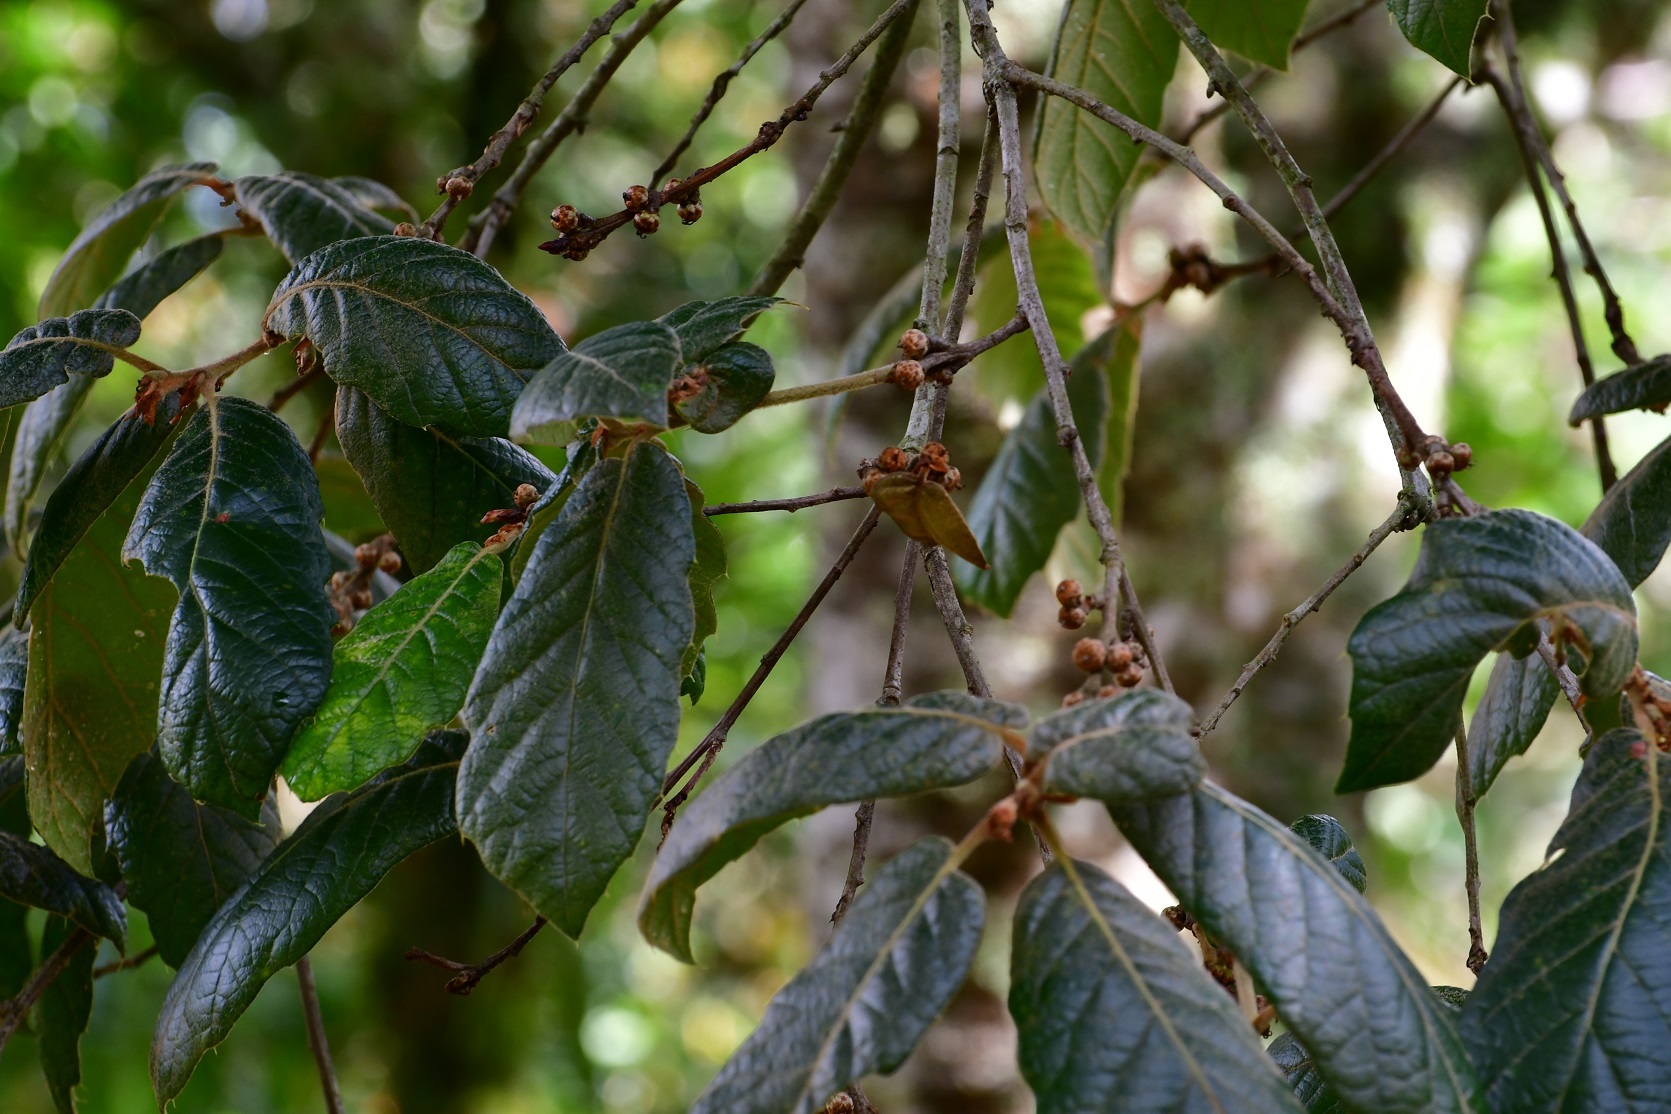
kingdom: Plantae
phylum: Tracheophyta
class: Magnoliopsida
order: Fagales
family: Fagaceae
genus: Quercus
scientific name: Quercus crassifolia
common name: Leather leaf mexican oak
